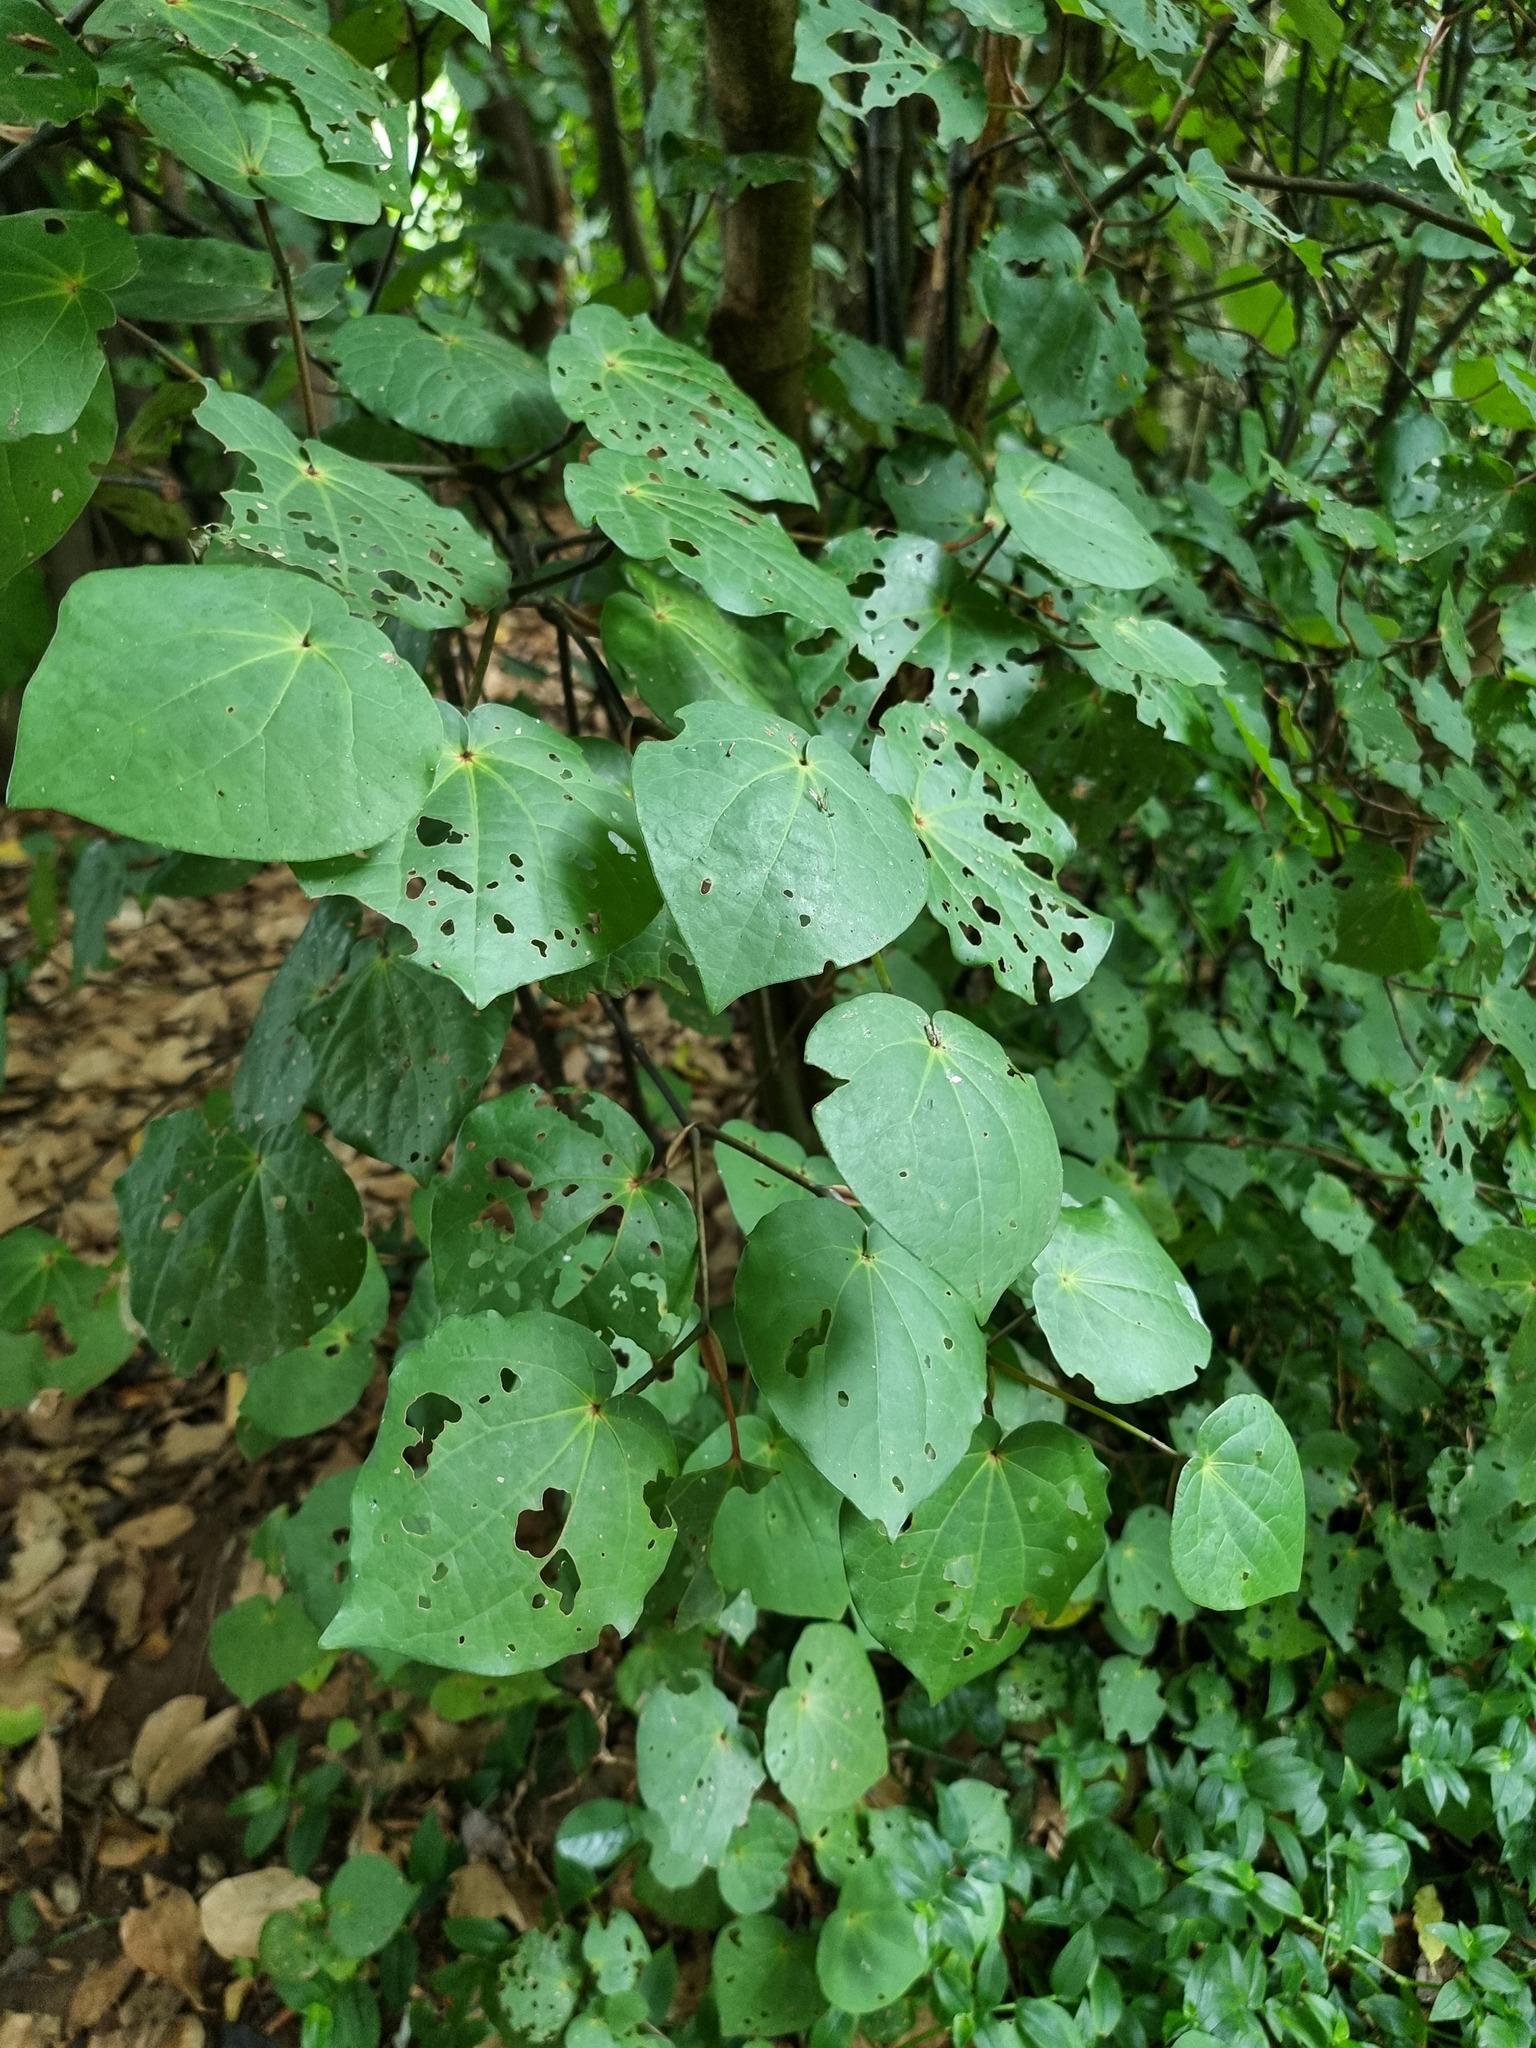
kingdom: Plantae
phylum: Tracheophyta
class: Magnoliopsida
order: Piperales
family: Piperaceae
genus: Macropiper
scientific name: Macropiper excelsum
